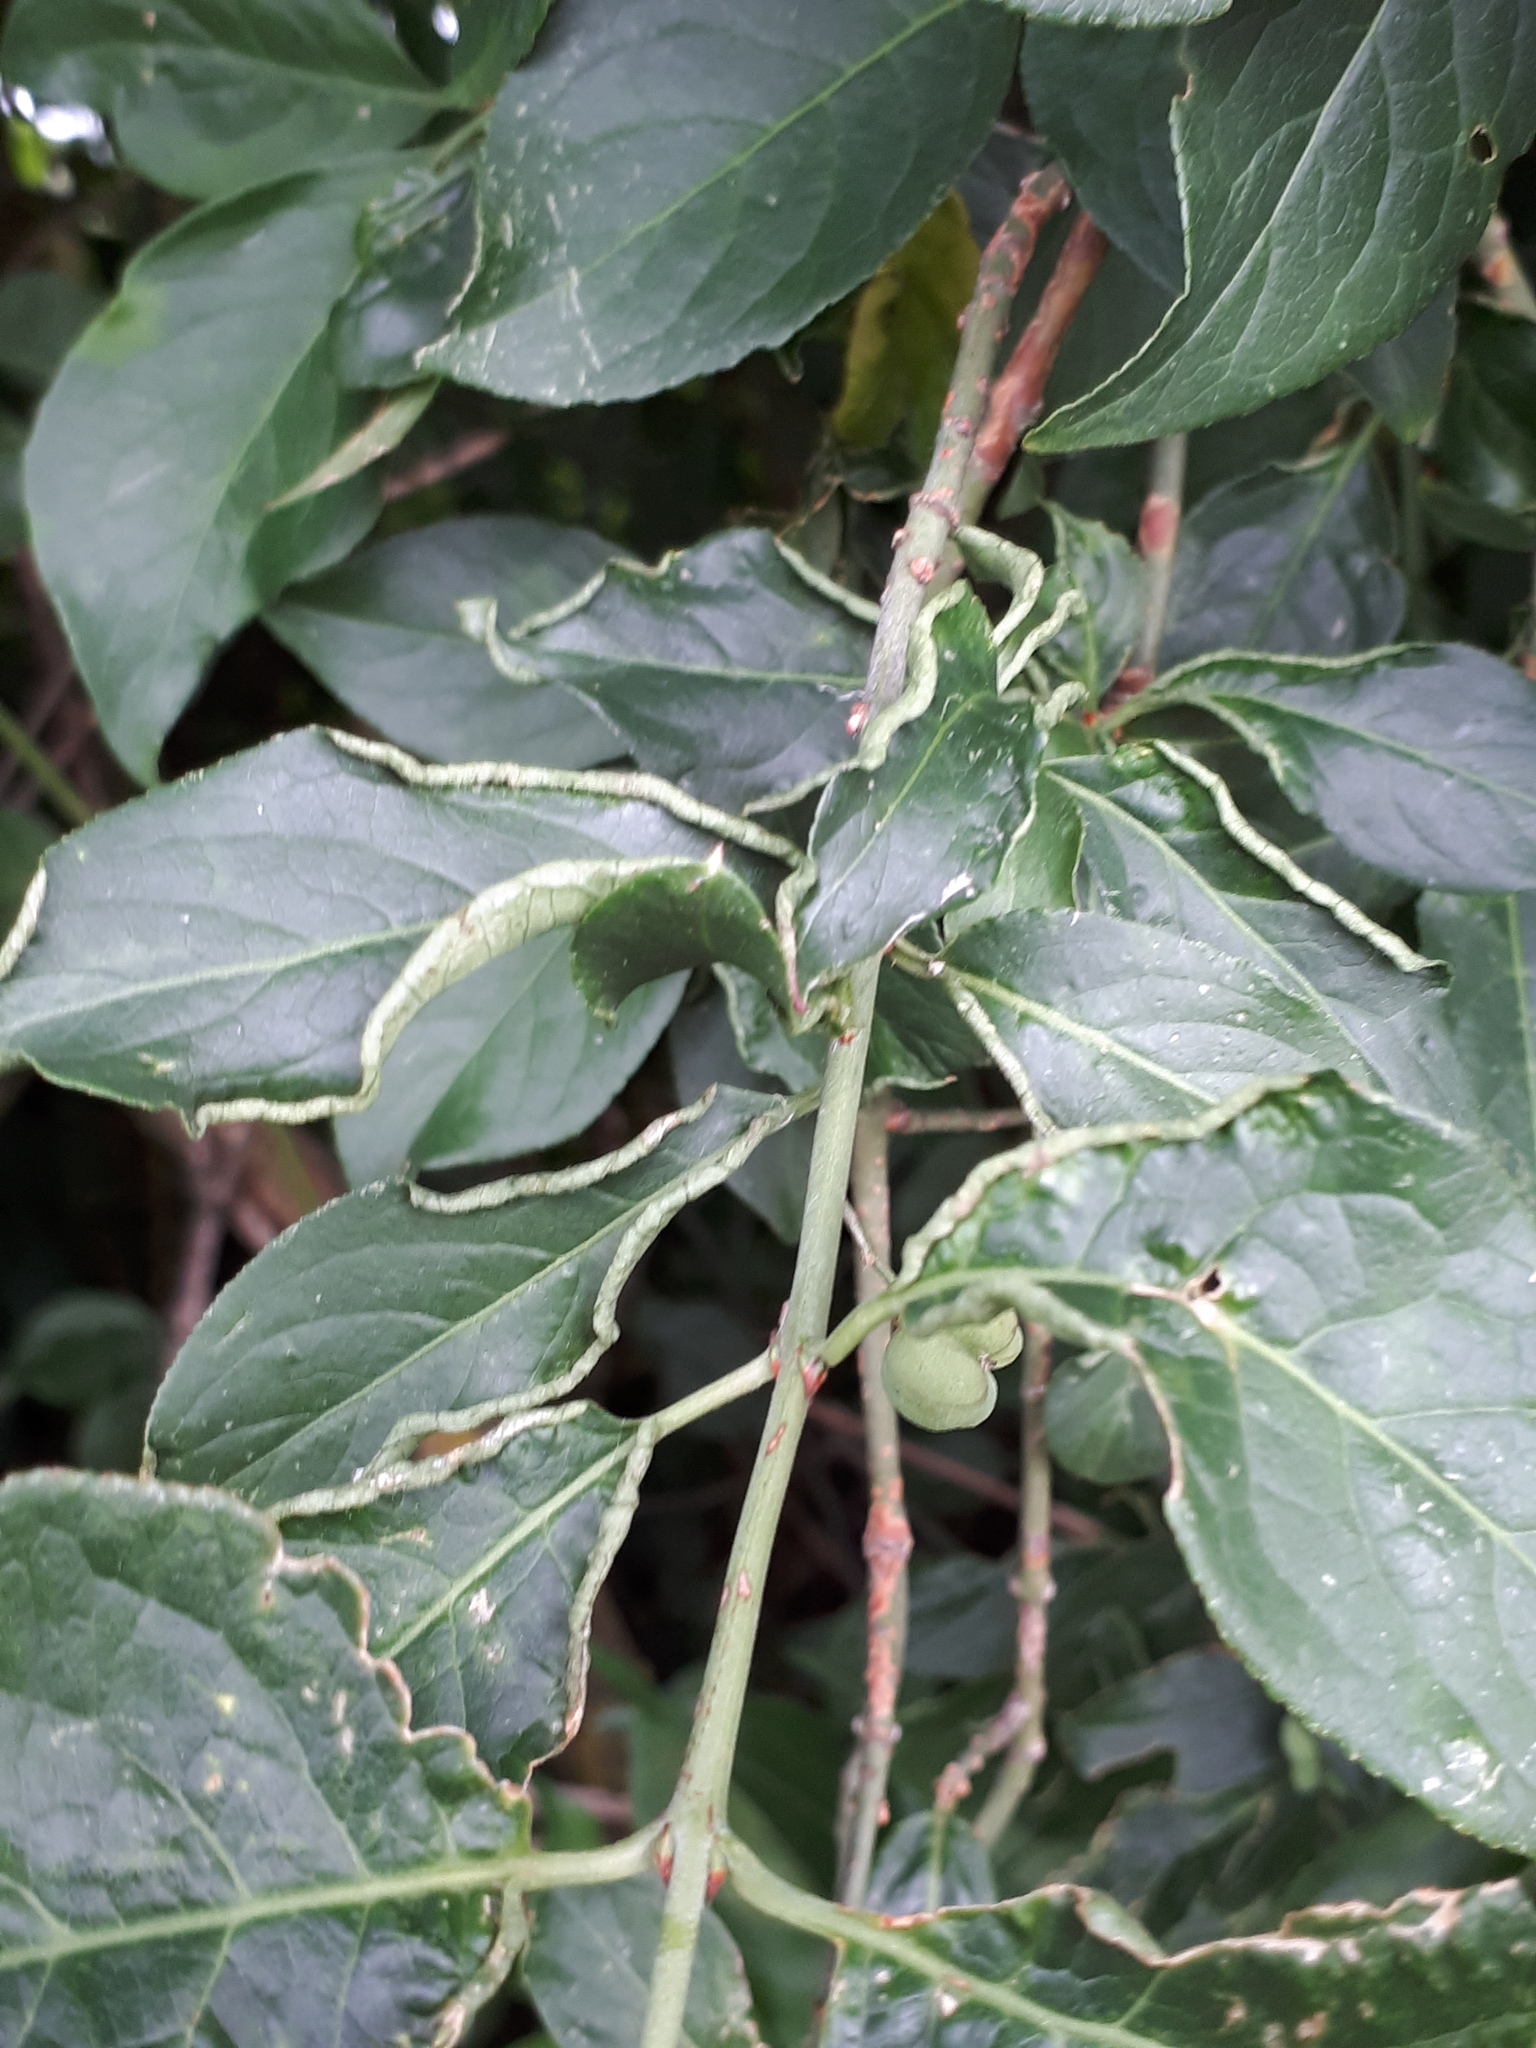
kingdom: Animalia
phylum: Arthropoda
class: Arachnida
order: Trombidiformes
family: Eriophyidae
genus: Stenacis
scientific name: Stenacis evonymi
